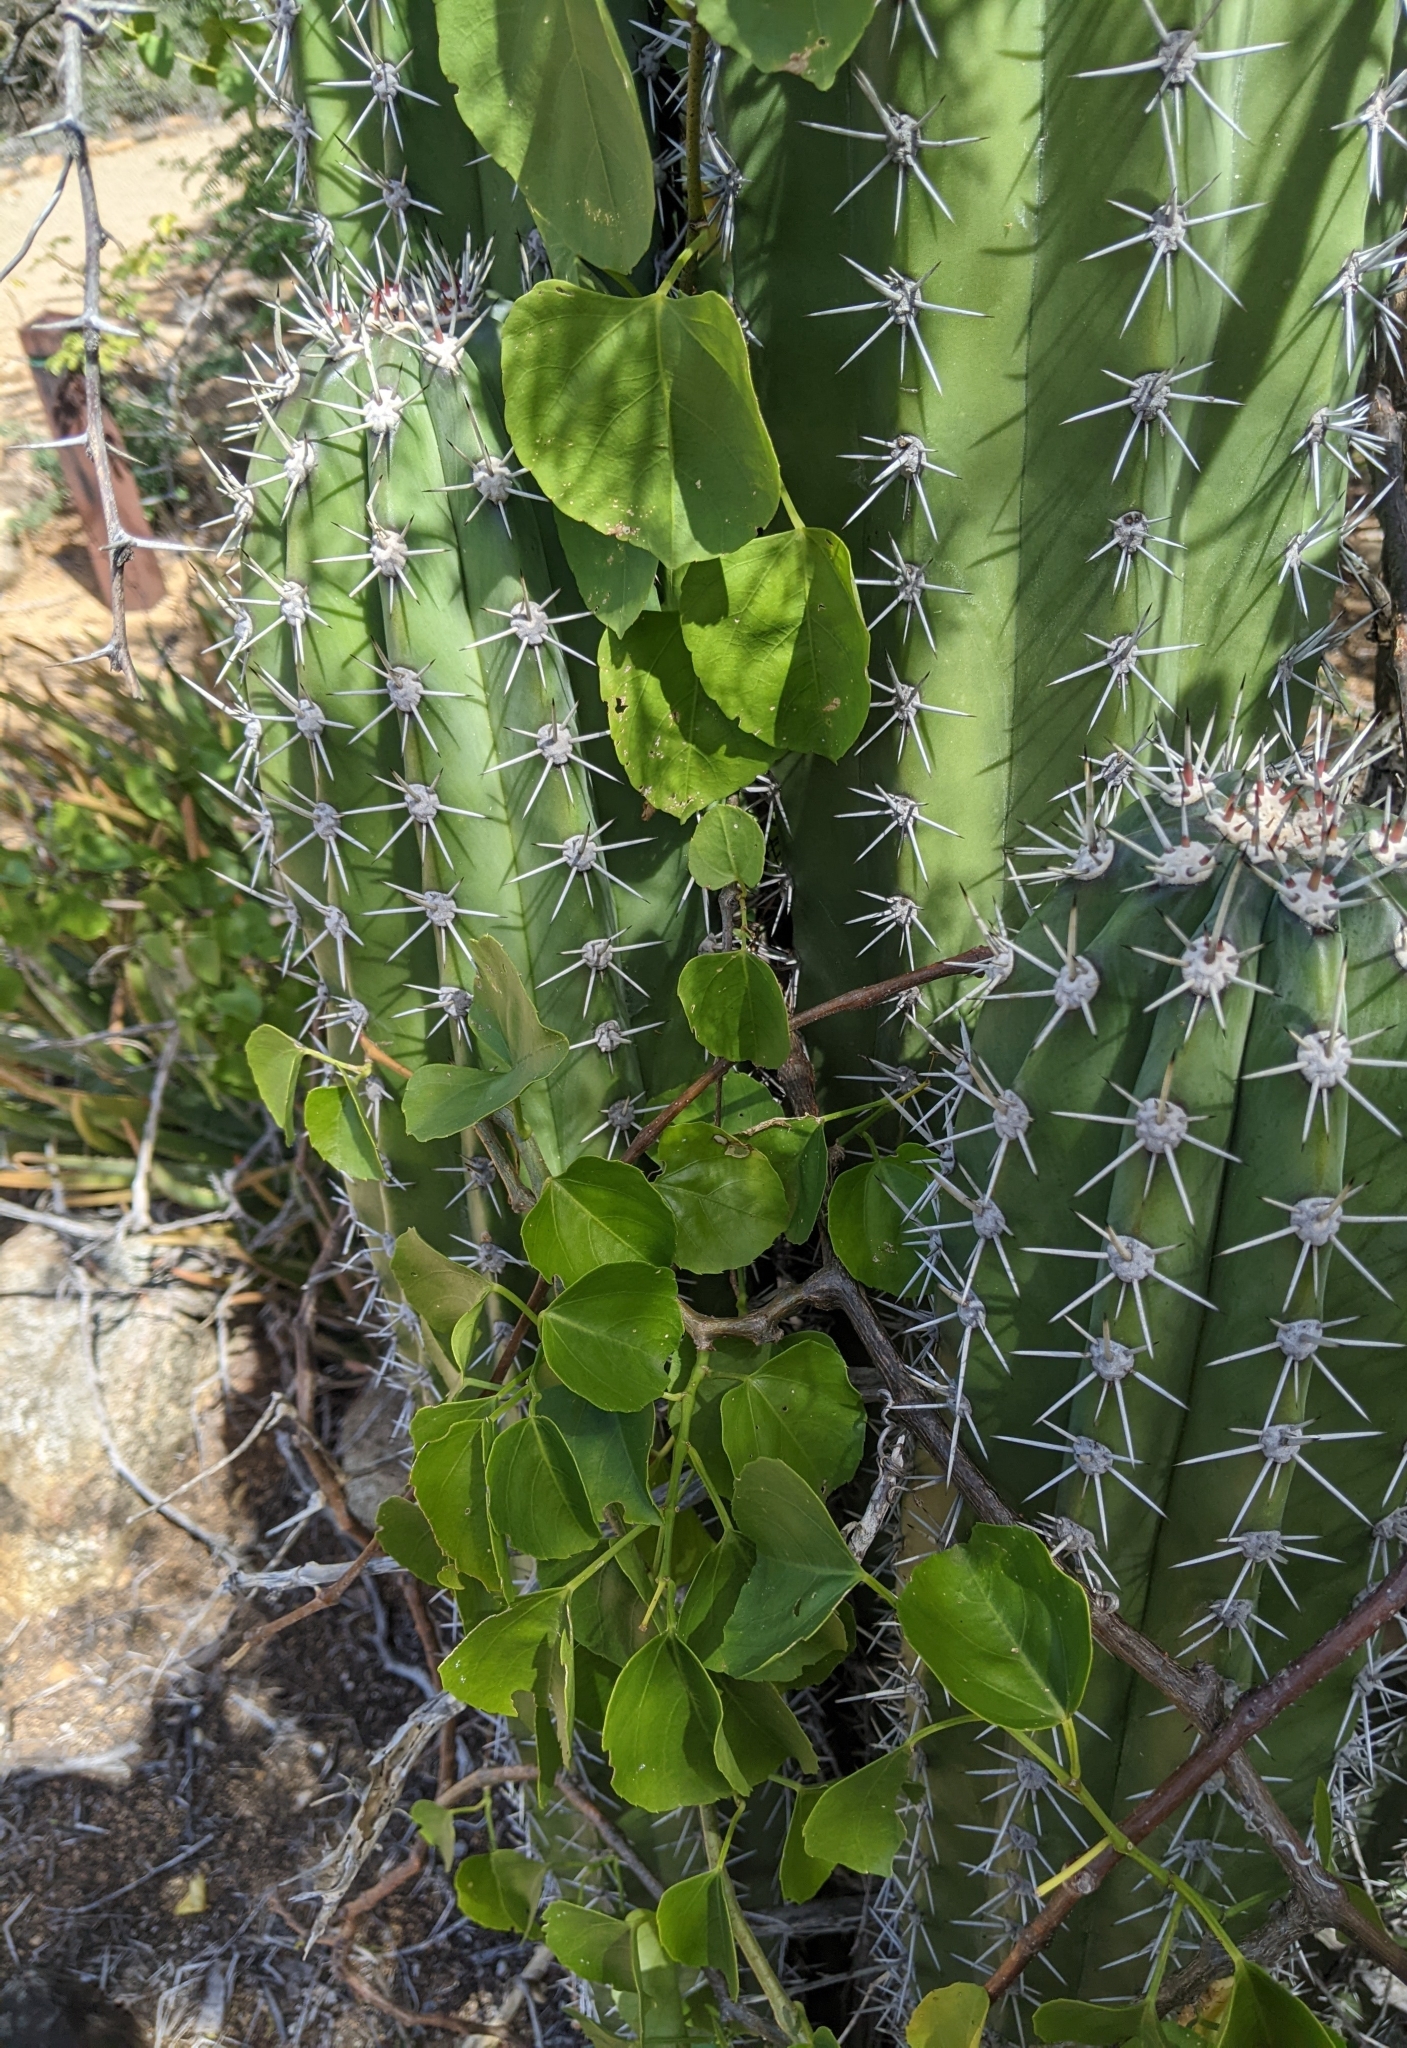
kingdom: Plantae
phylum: Tracheophyta
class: Magnoliopsida
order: Caryophyllales
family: Cactaceae
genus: Stenocereus
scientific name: Stenocereus griseus
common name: Tall candelabra cactus
